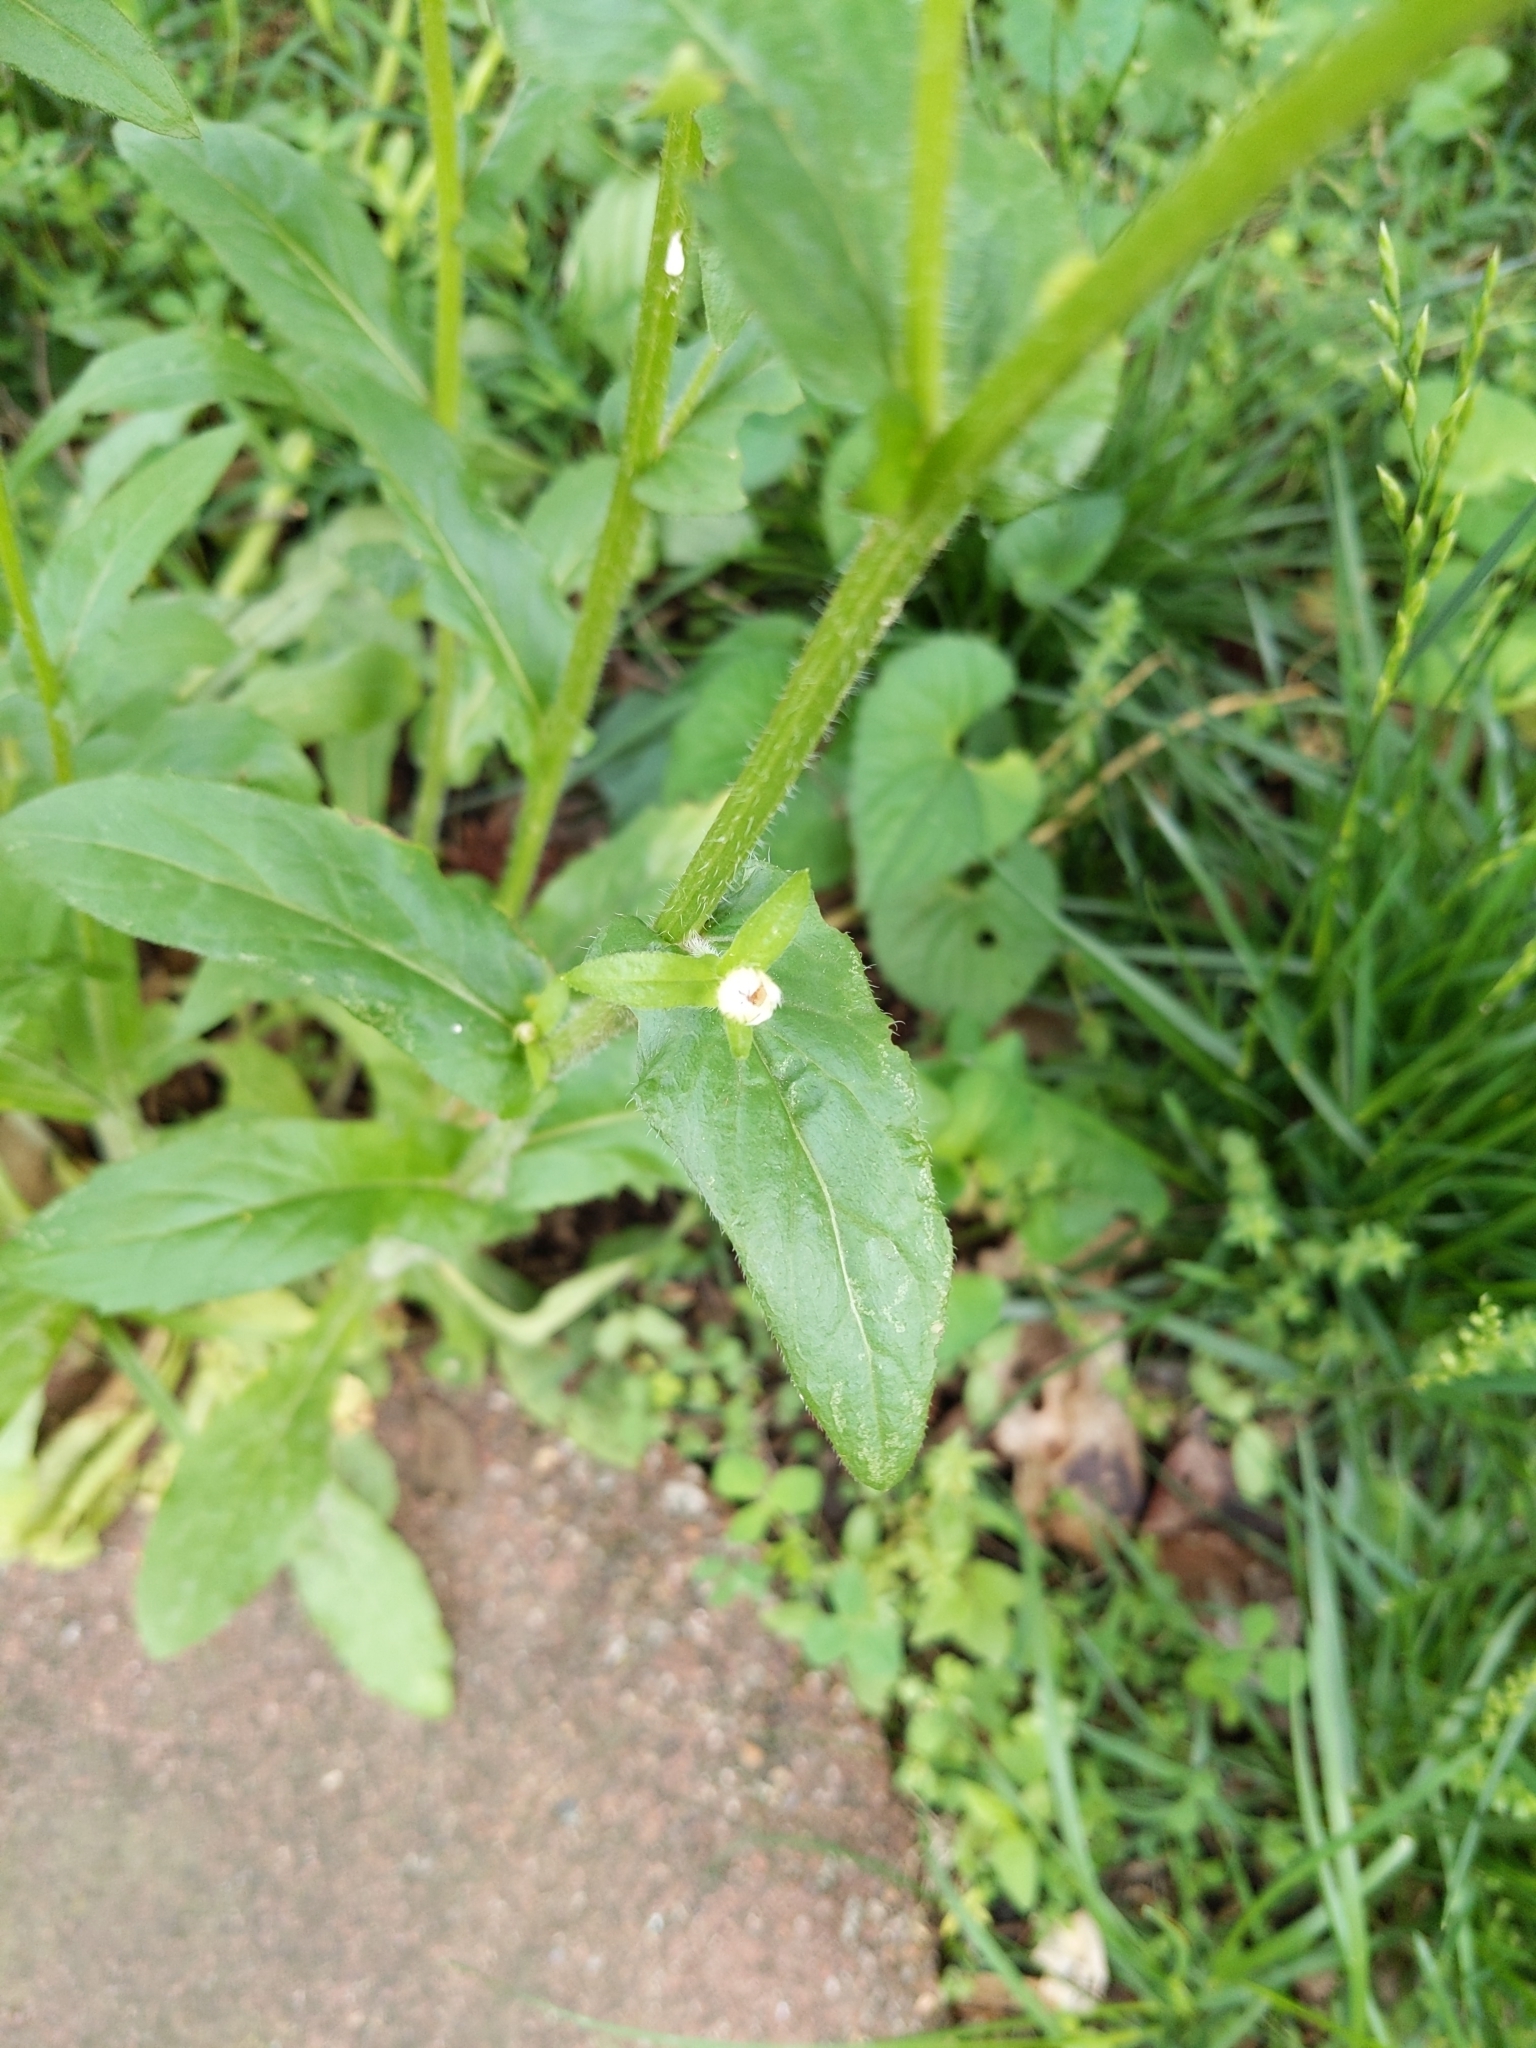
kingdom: Plantae
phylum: Tracheophyta
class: Magnoliopsida
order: Asterales
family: Asteraceae
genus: Erigeron
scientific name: Erigeron philadelphicus
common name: Robin's-plantain
